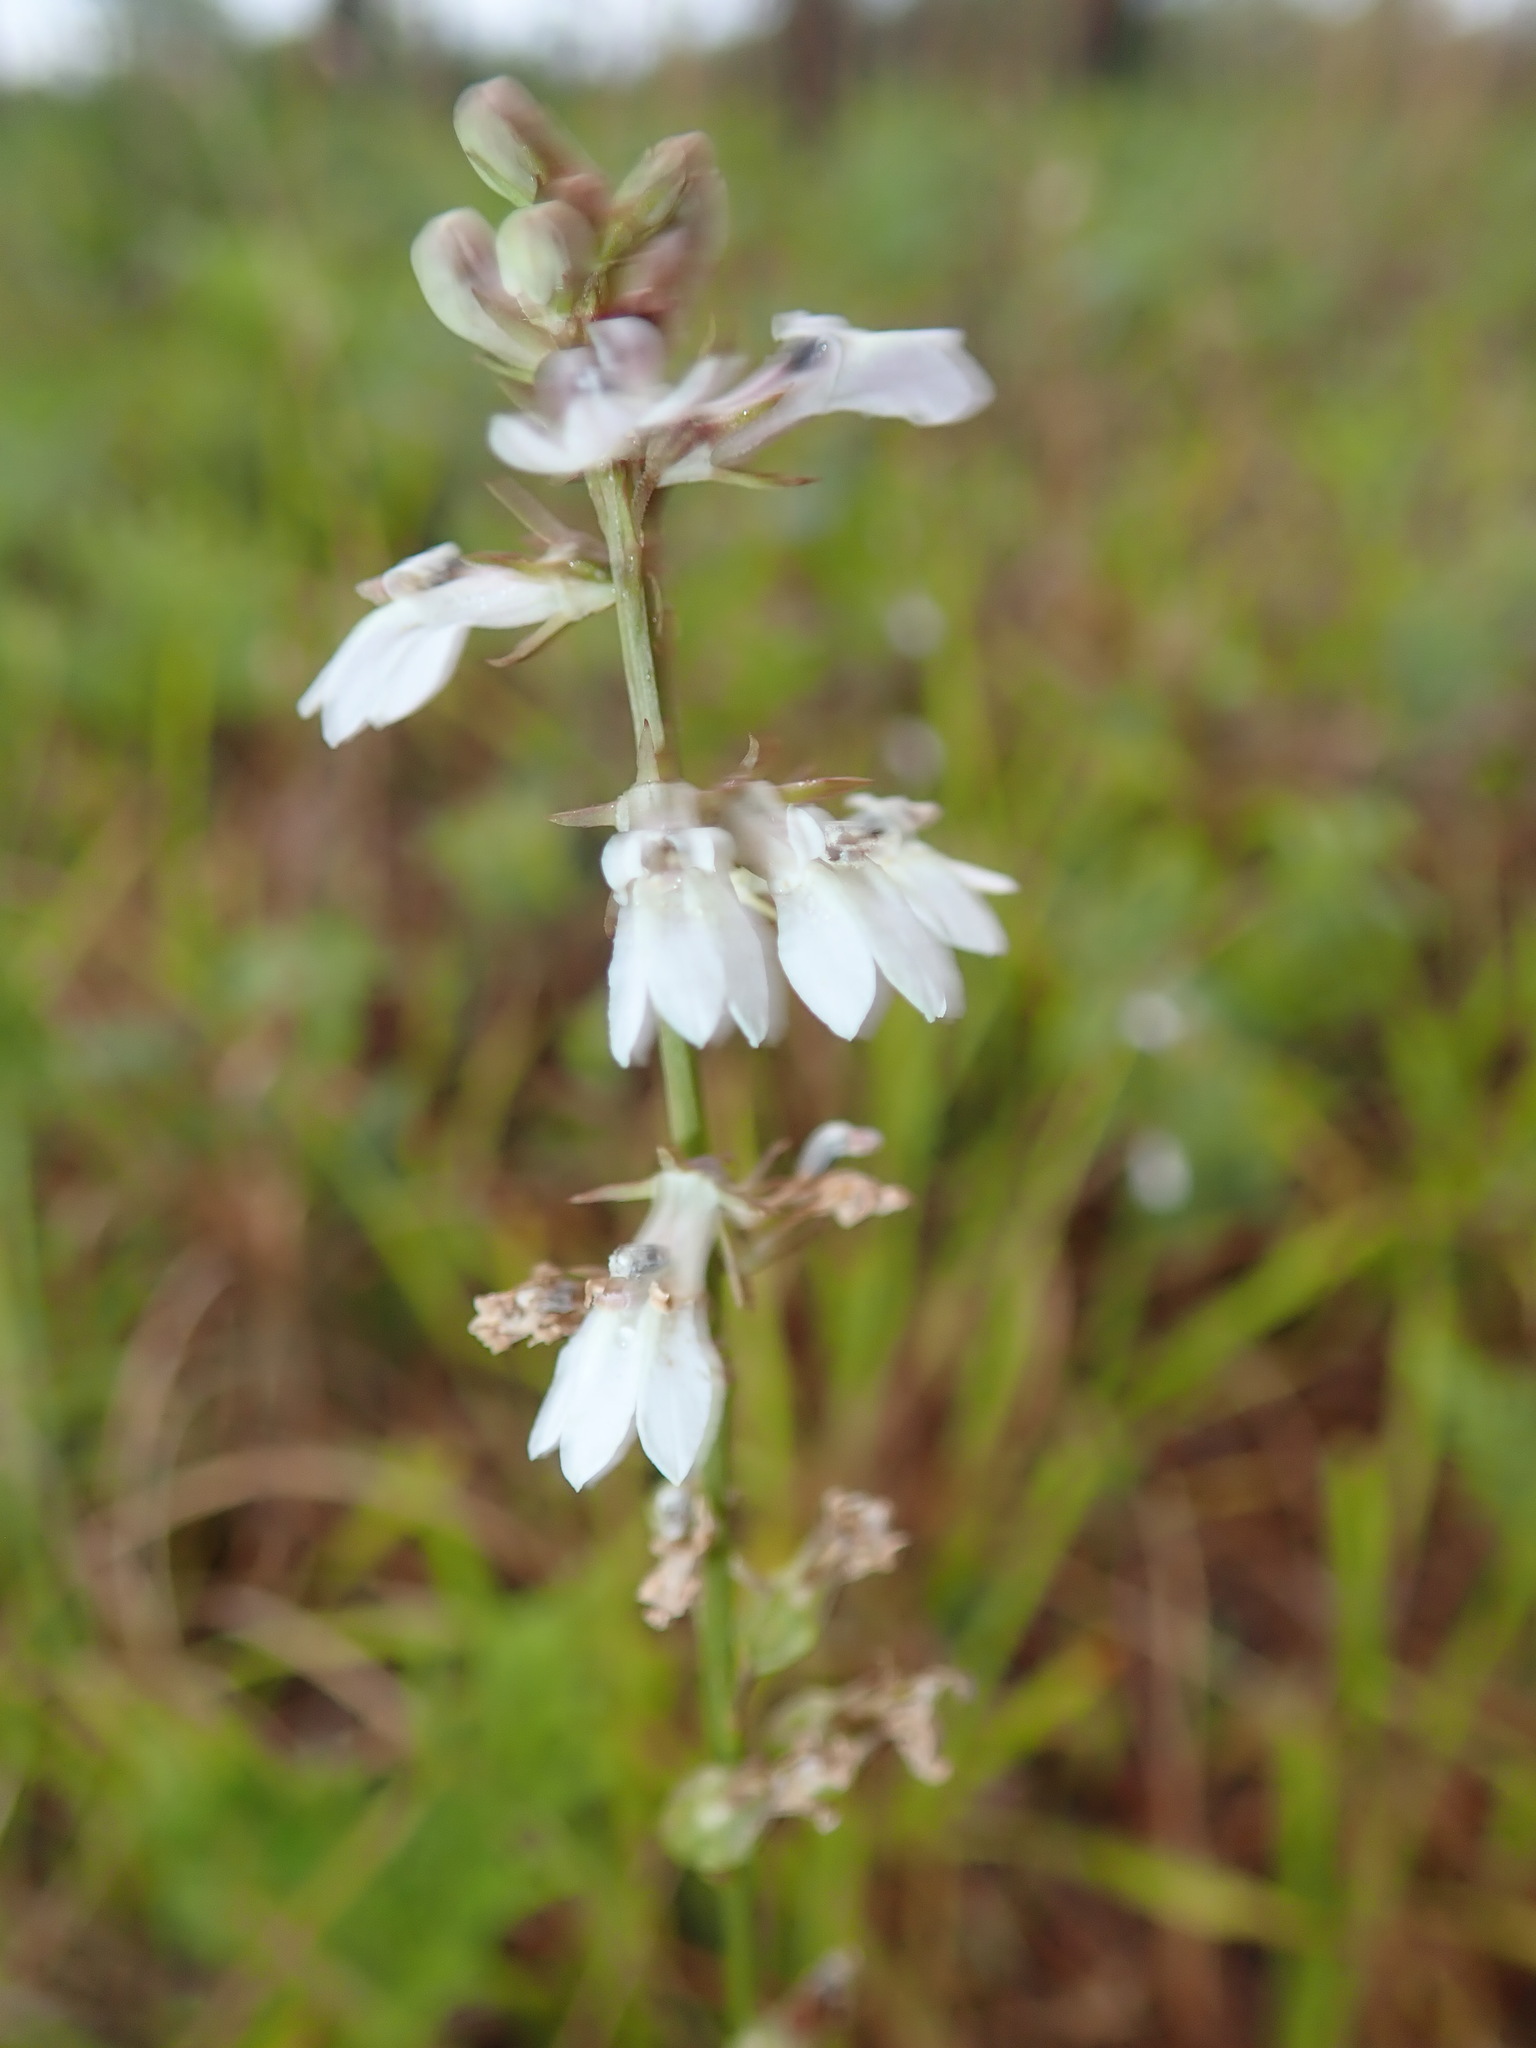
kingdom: Plantae
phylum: Tracheophyta
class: Magnoliopsida
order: Asterales
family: Campanulaceae
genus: Lobelia
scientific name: Lobelia paludosa
